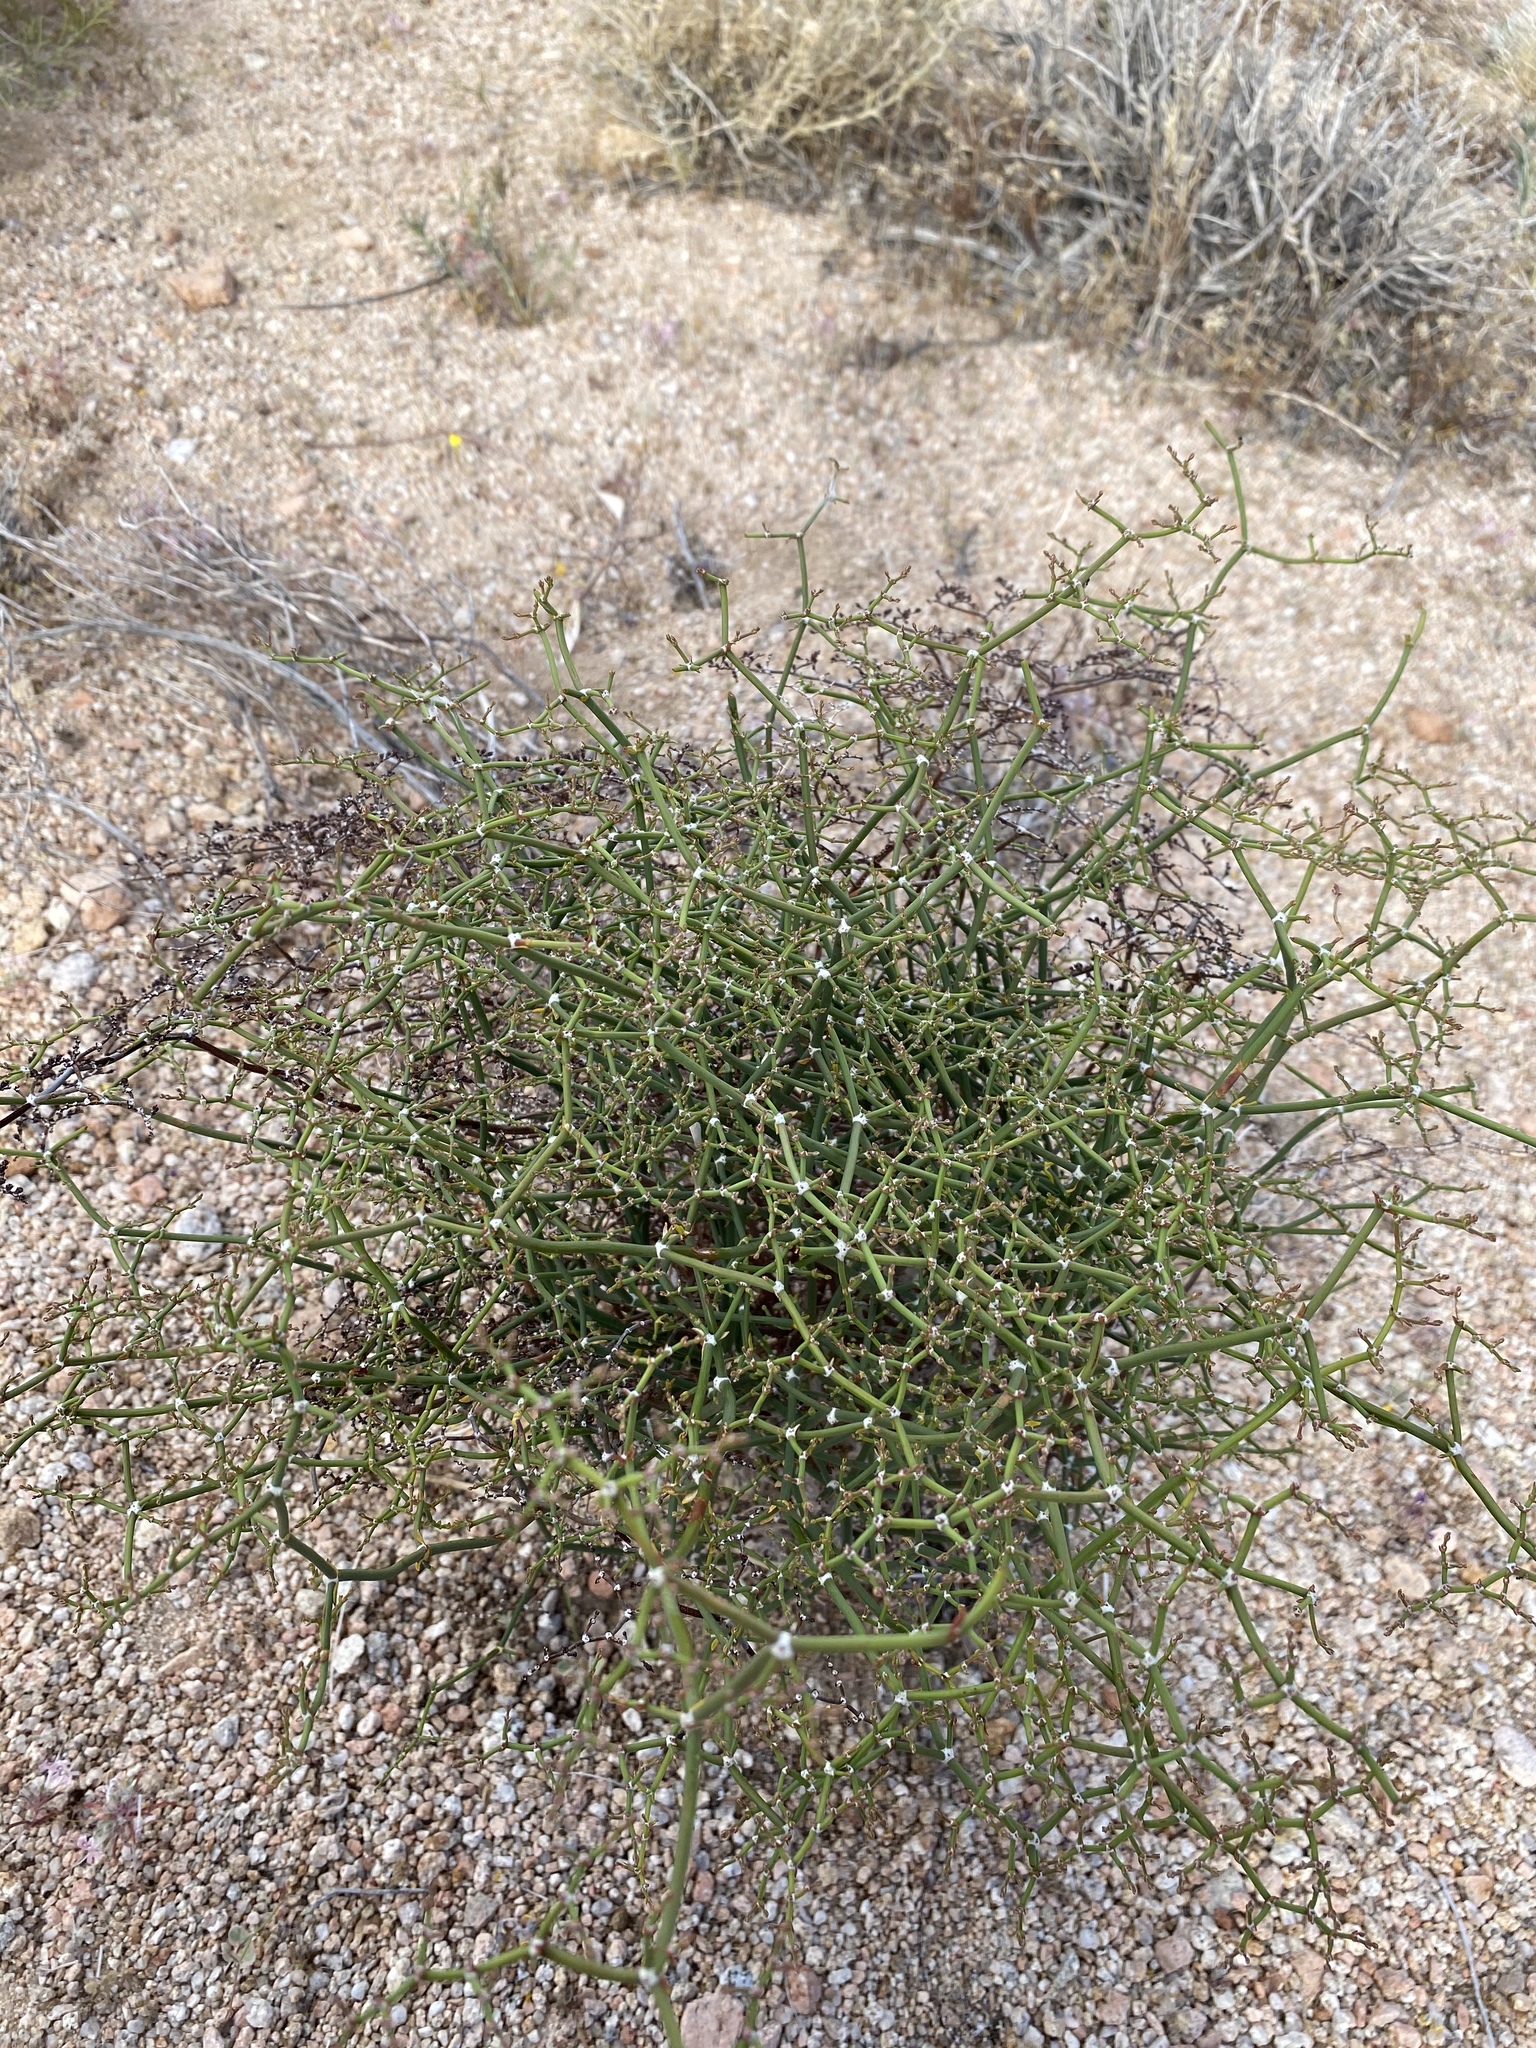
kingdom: Plantae
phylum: Tracheophyta
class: Magnoliopsida
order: Caryophyllales
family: Polygonaceae
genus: Eriogonum
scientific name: Eriogonum plumatella
